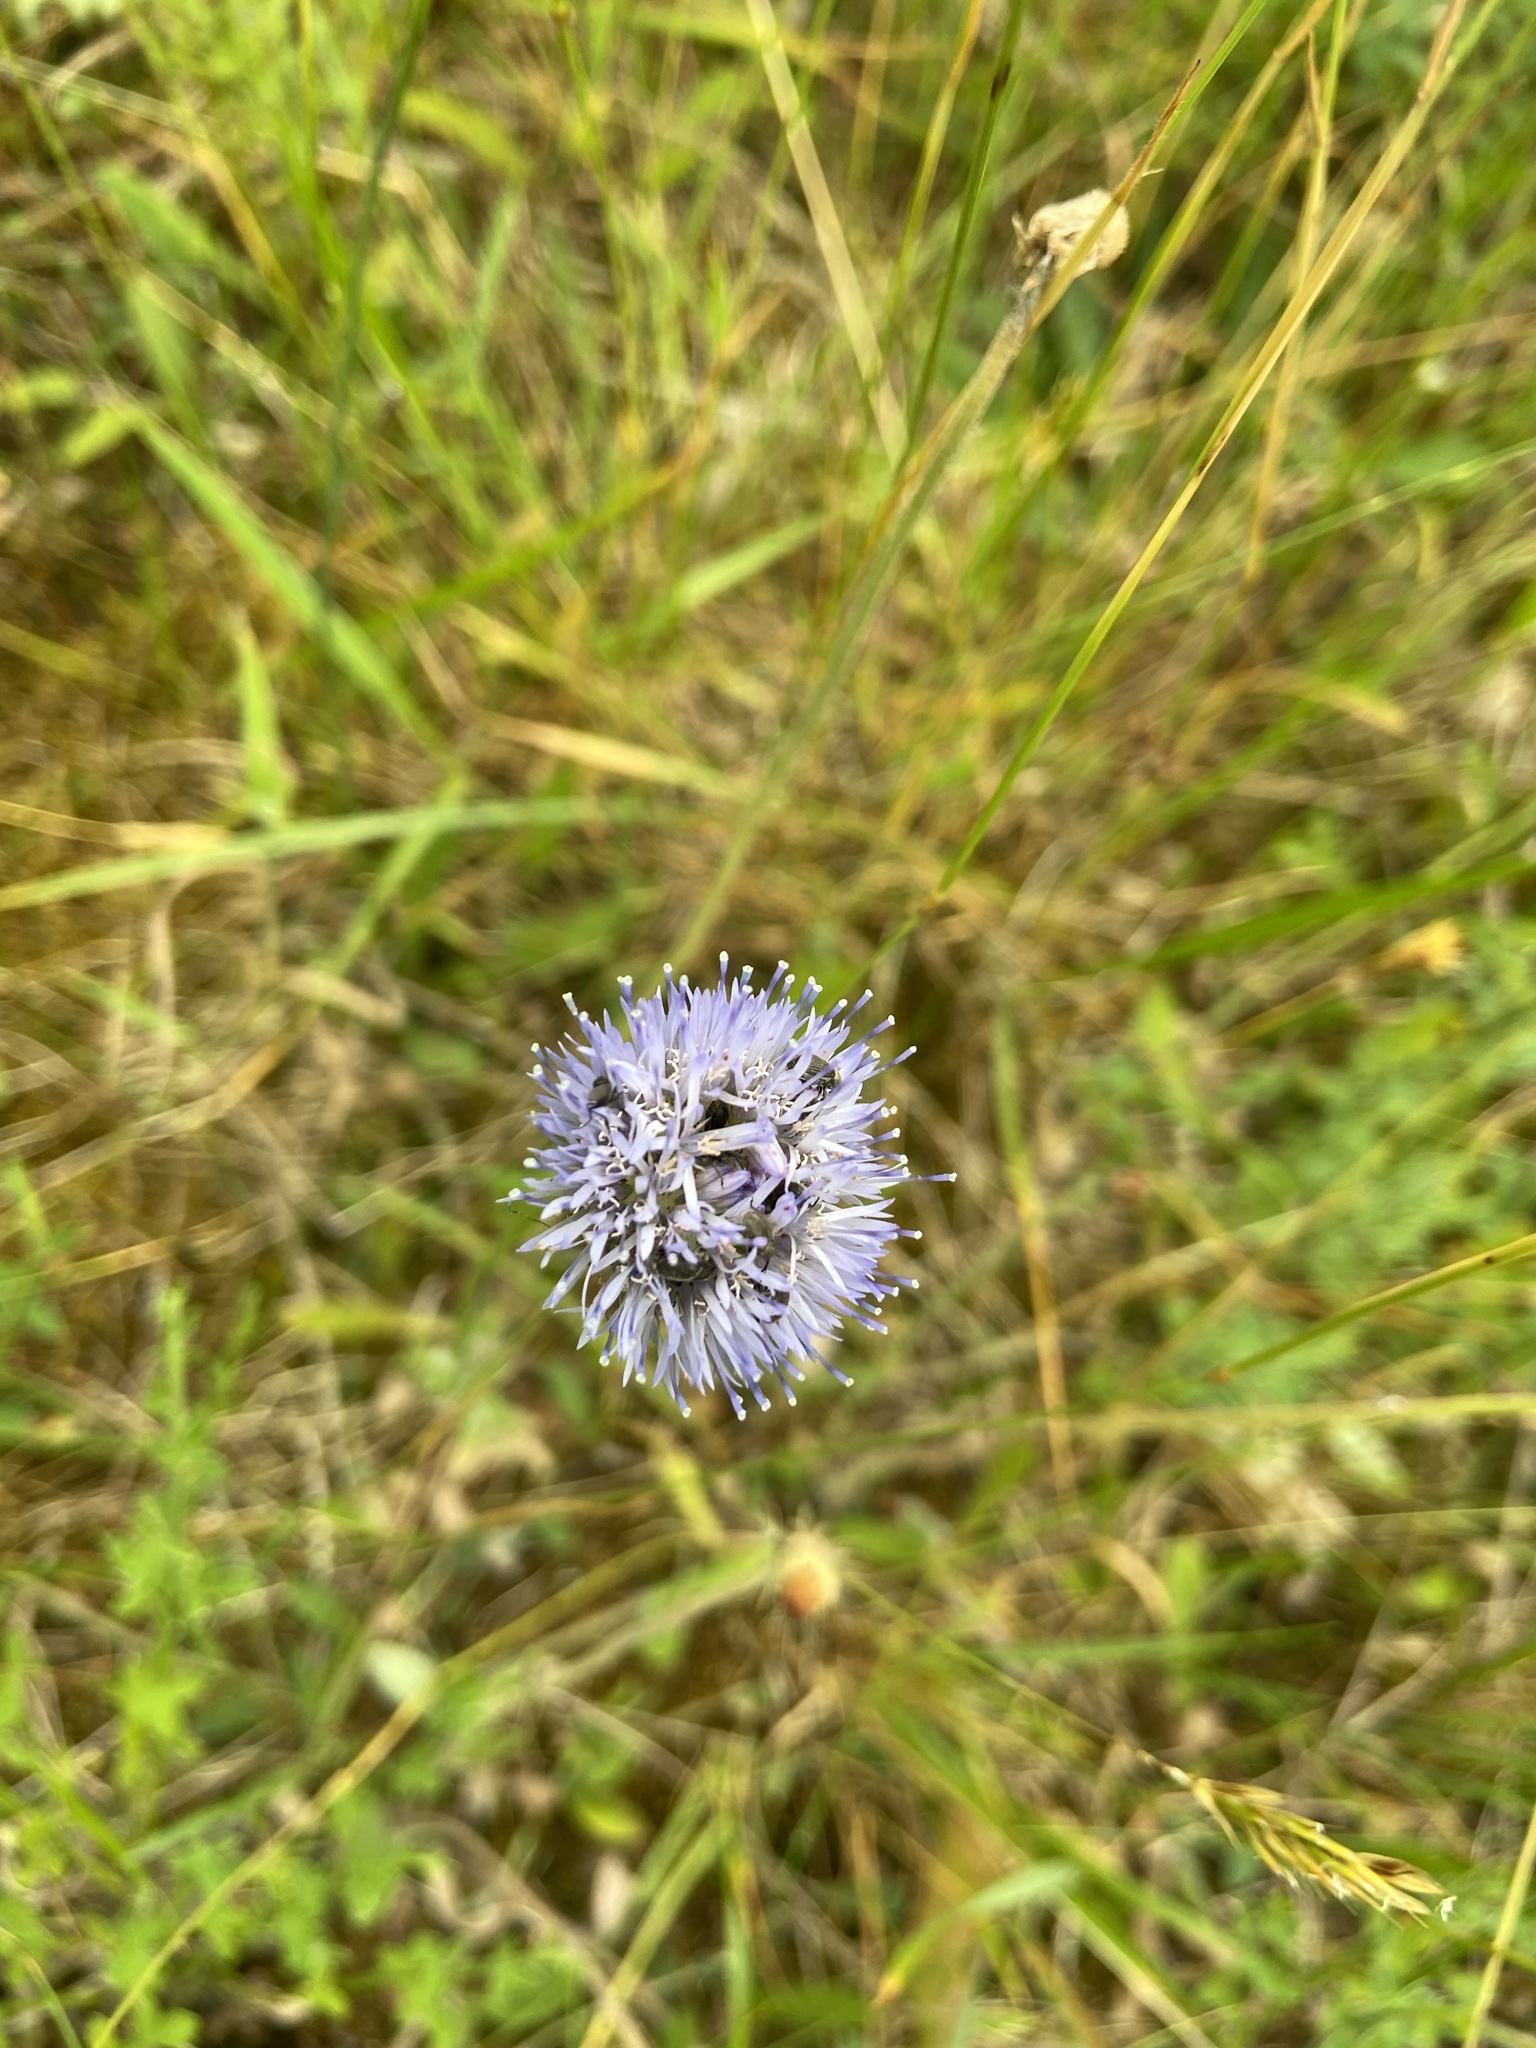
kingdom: Plantae
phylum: Tracheophyta
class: Magnoliopsida
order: Asterales
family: Campanulaceae
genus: Jasione
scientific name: Jasione montana
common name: Sheep's-bit
